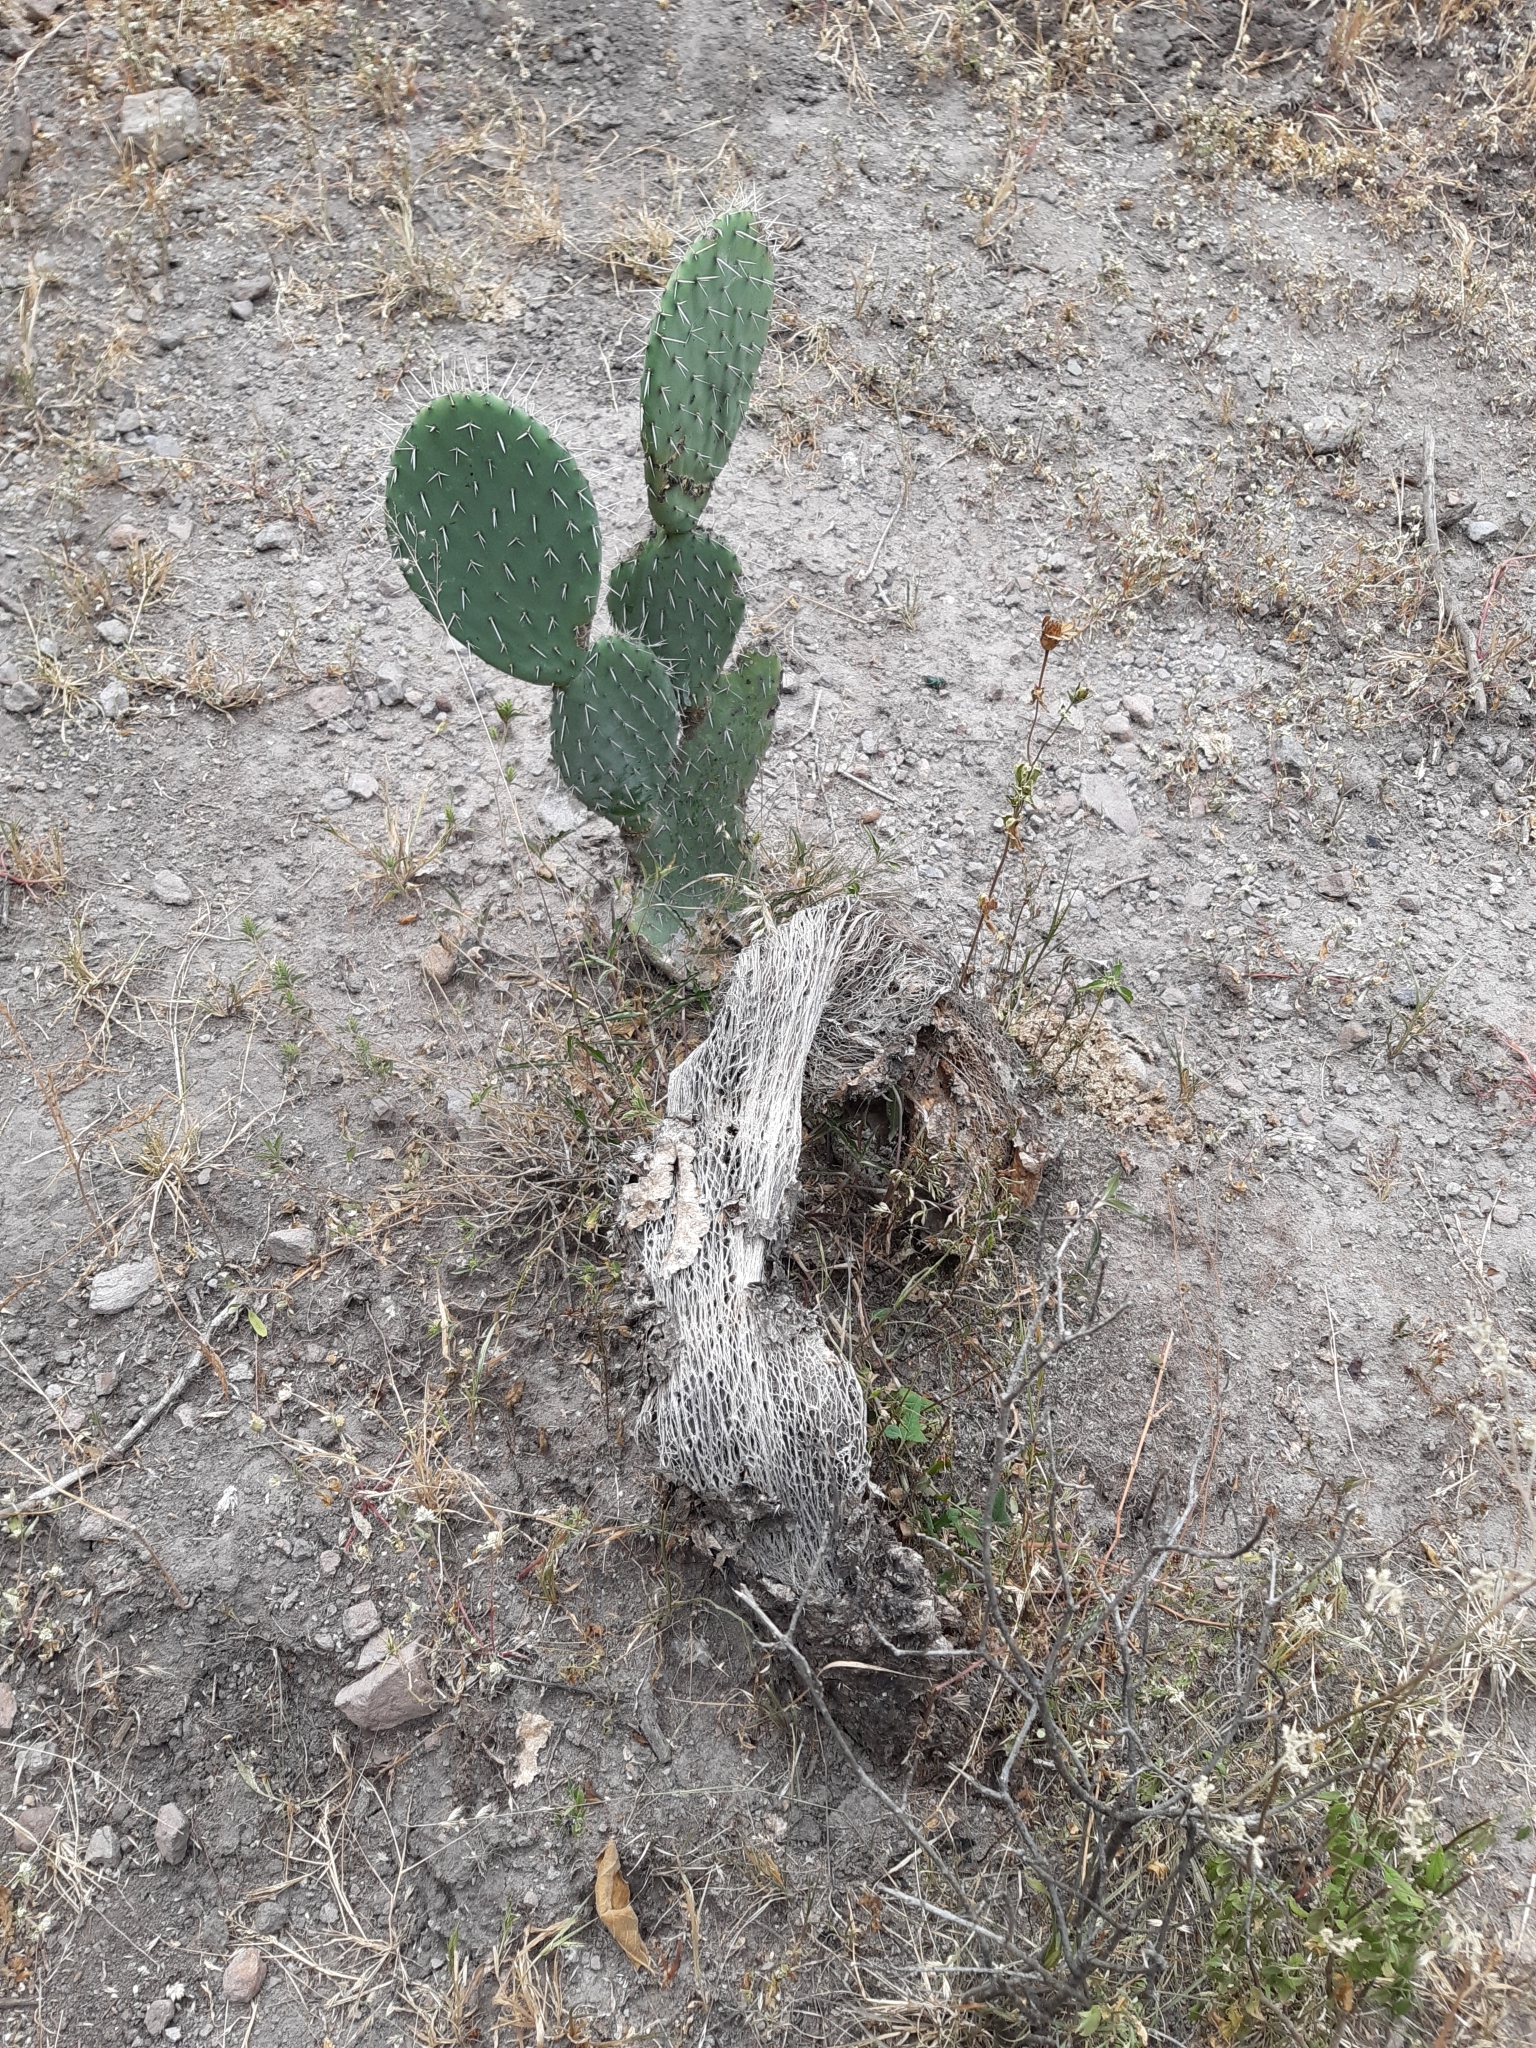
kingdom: Plantae
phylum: Tracheophyta
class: Magnoliopsida
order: Caryophyllales
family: Cactaceae
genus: Opuntia
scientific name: Opuntia lasiacantha
